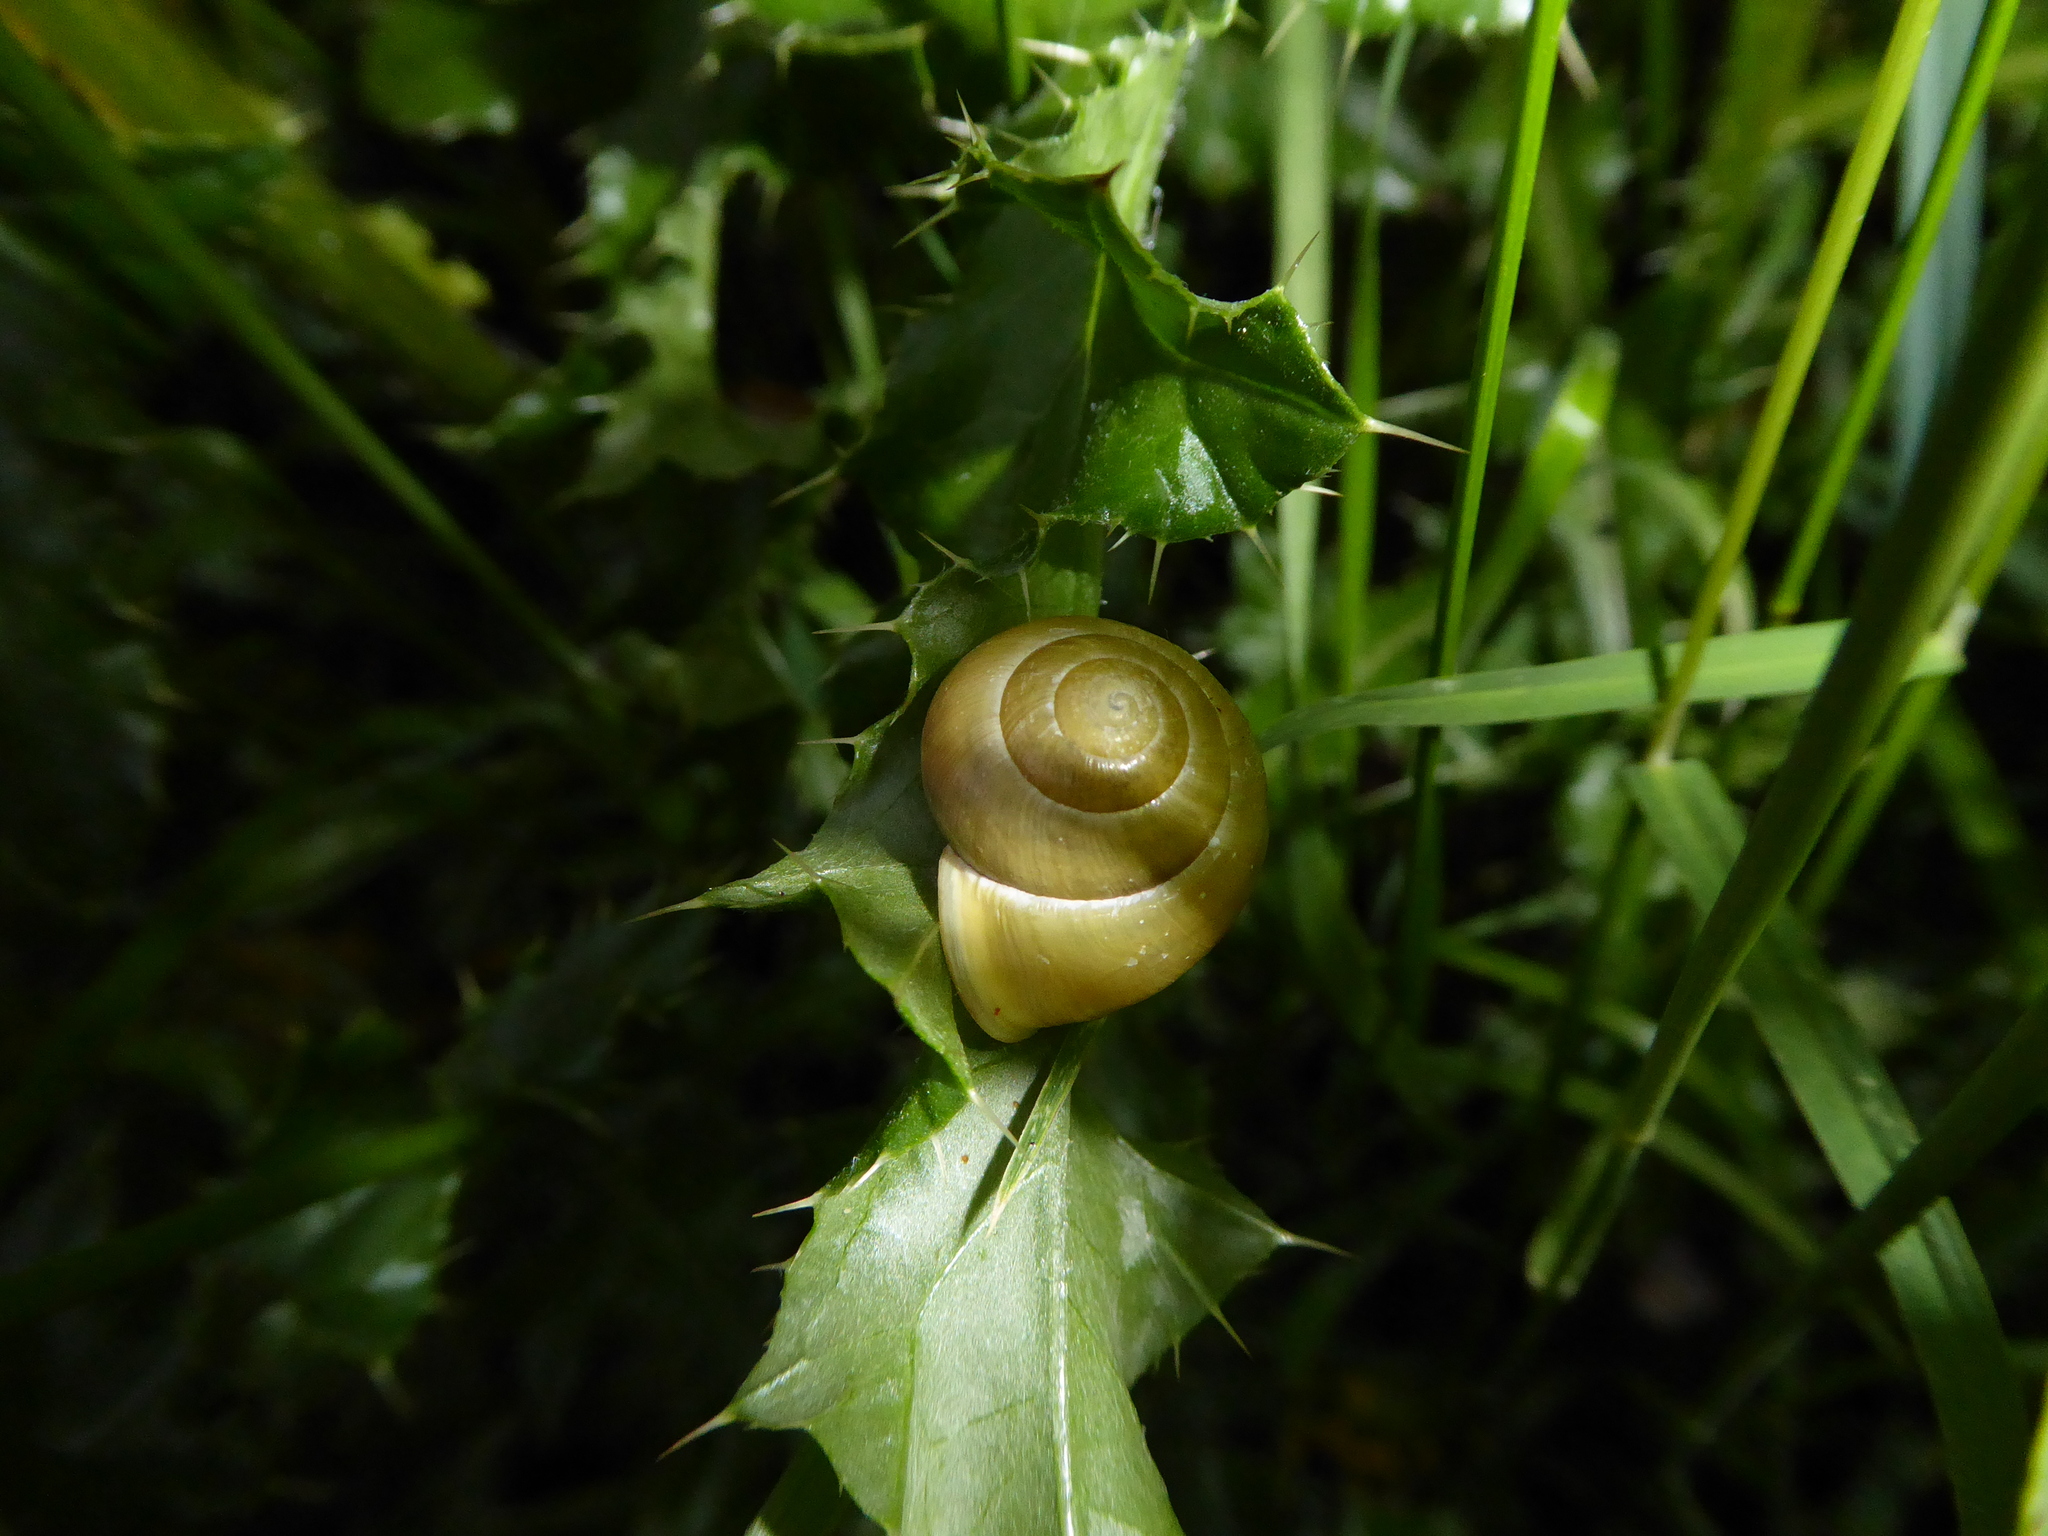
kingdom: Animalia
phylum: Mollusca
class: Gastropoda
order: Stylommatophora
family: Helicidae
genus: Cepaea
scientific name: Cepaea hortensis
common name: White-lip gardensnail
